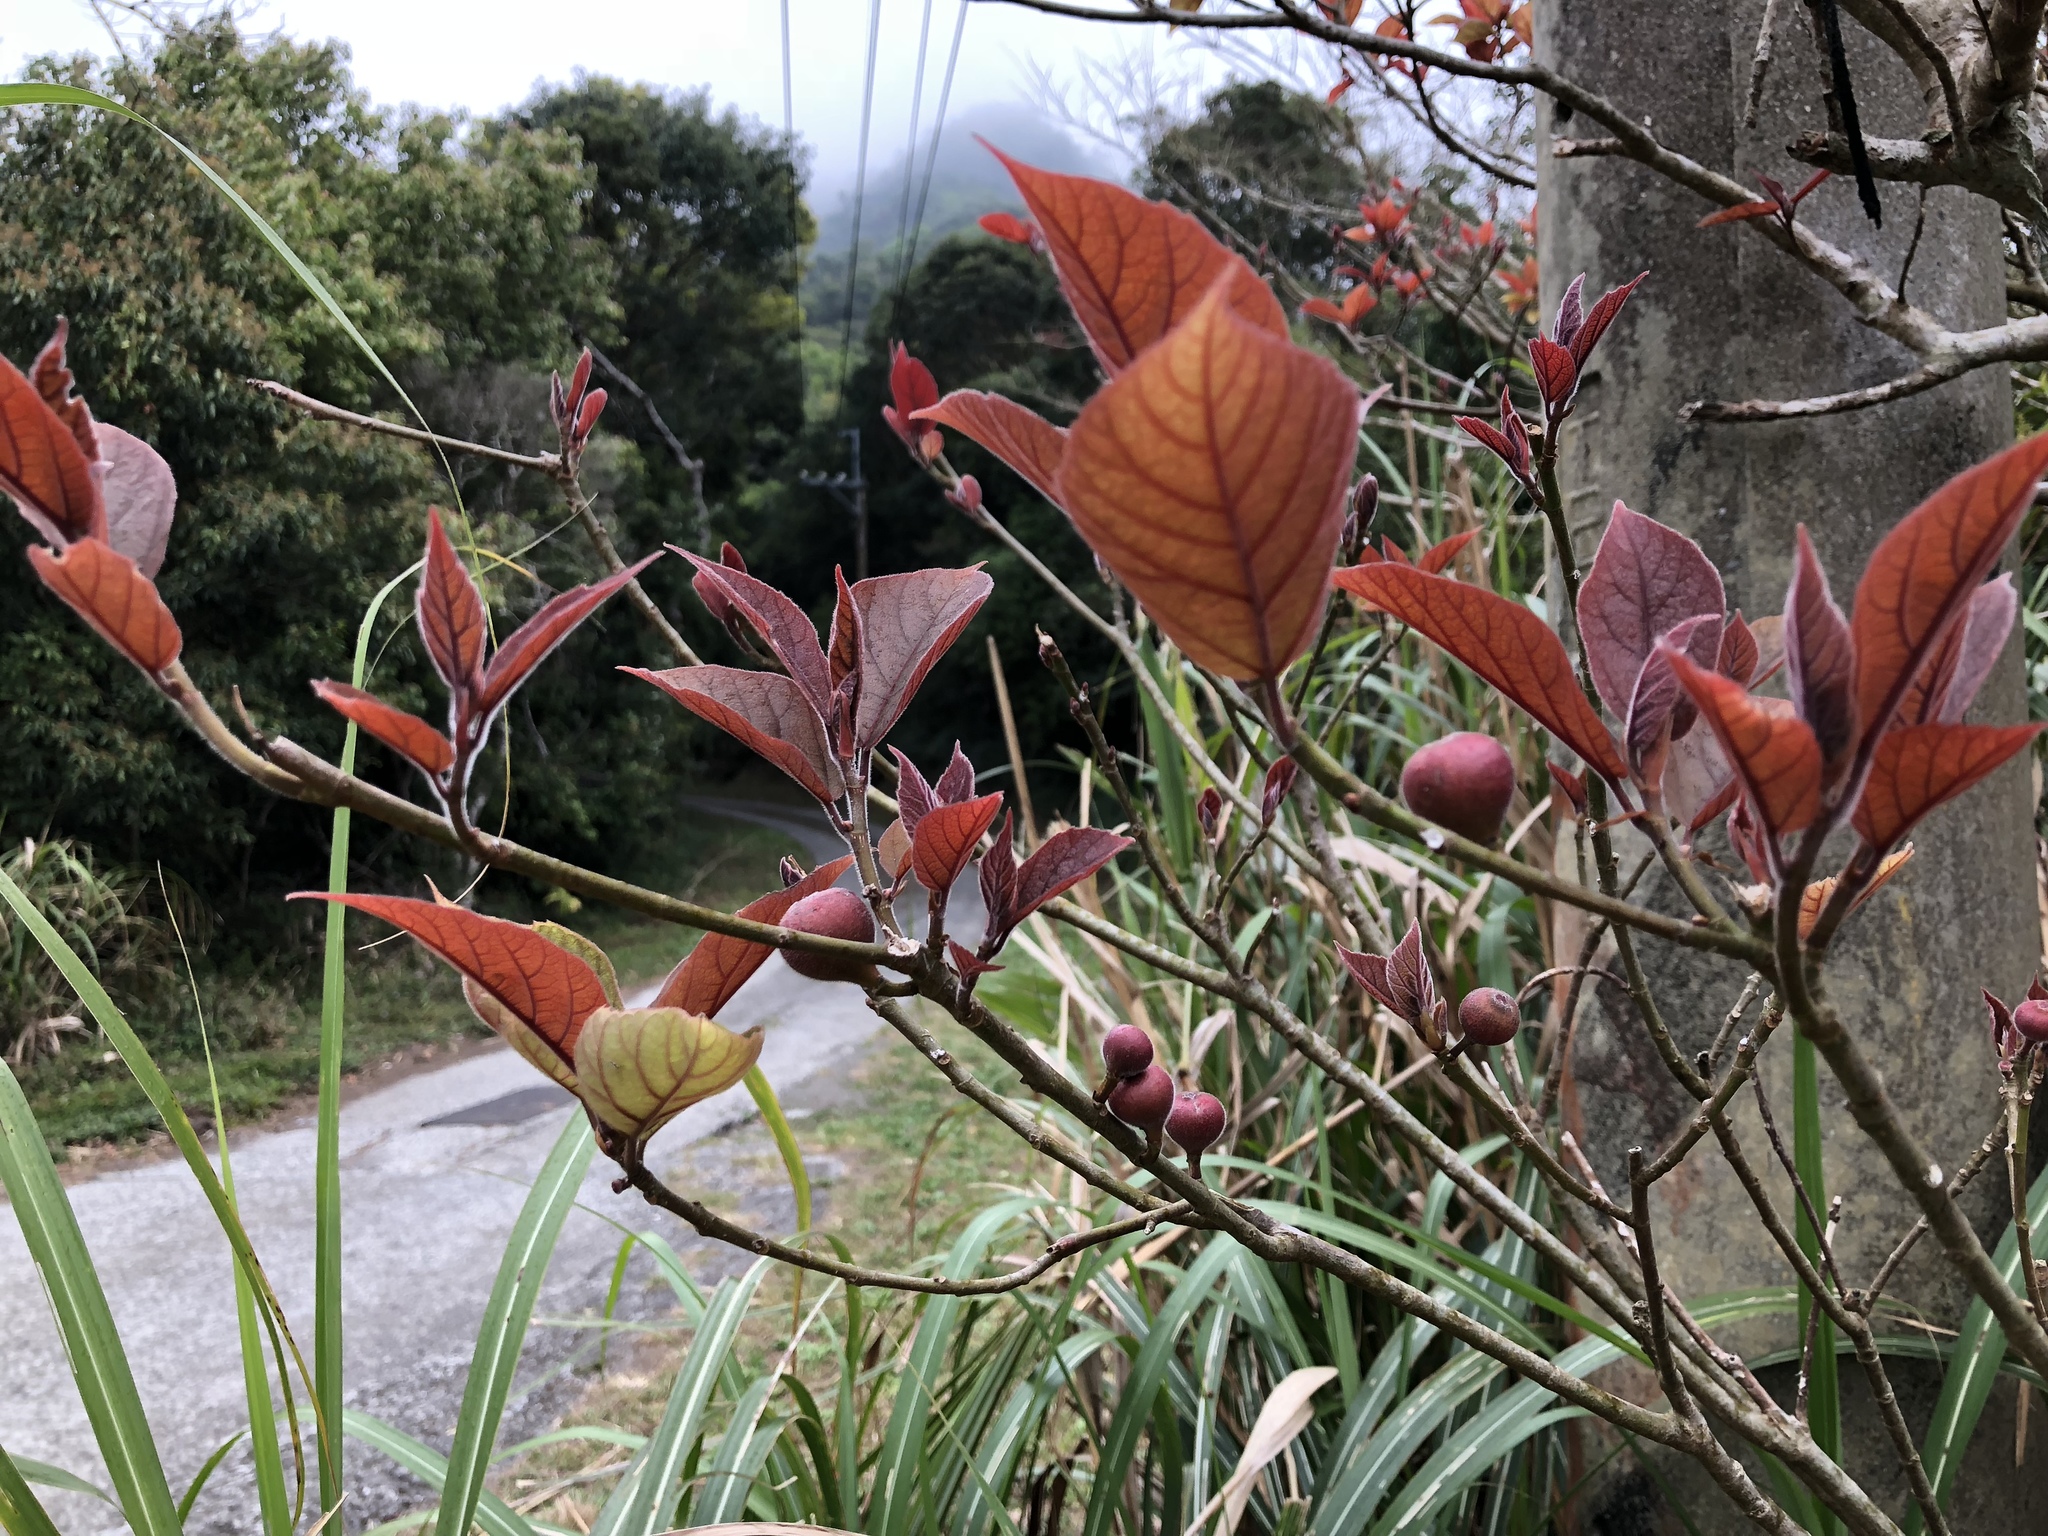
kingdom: Plantae
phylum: Tracheophyta
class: Magnoliopsida
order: Rosales
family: Moraceae
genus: Ficus
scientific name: Ficus erecta
